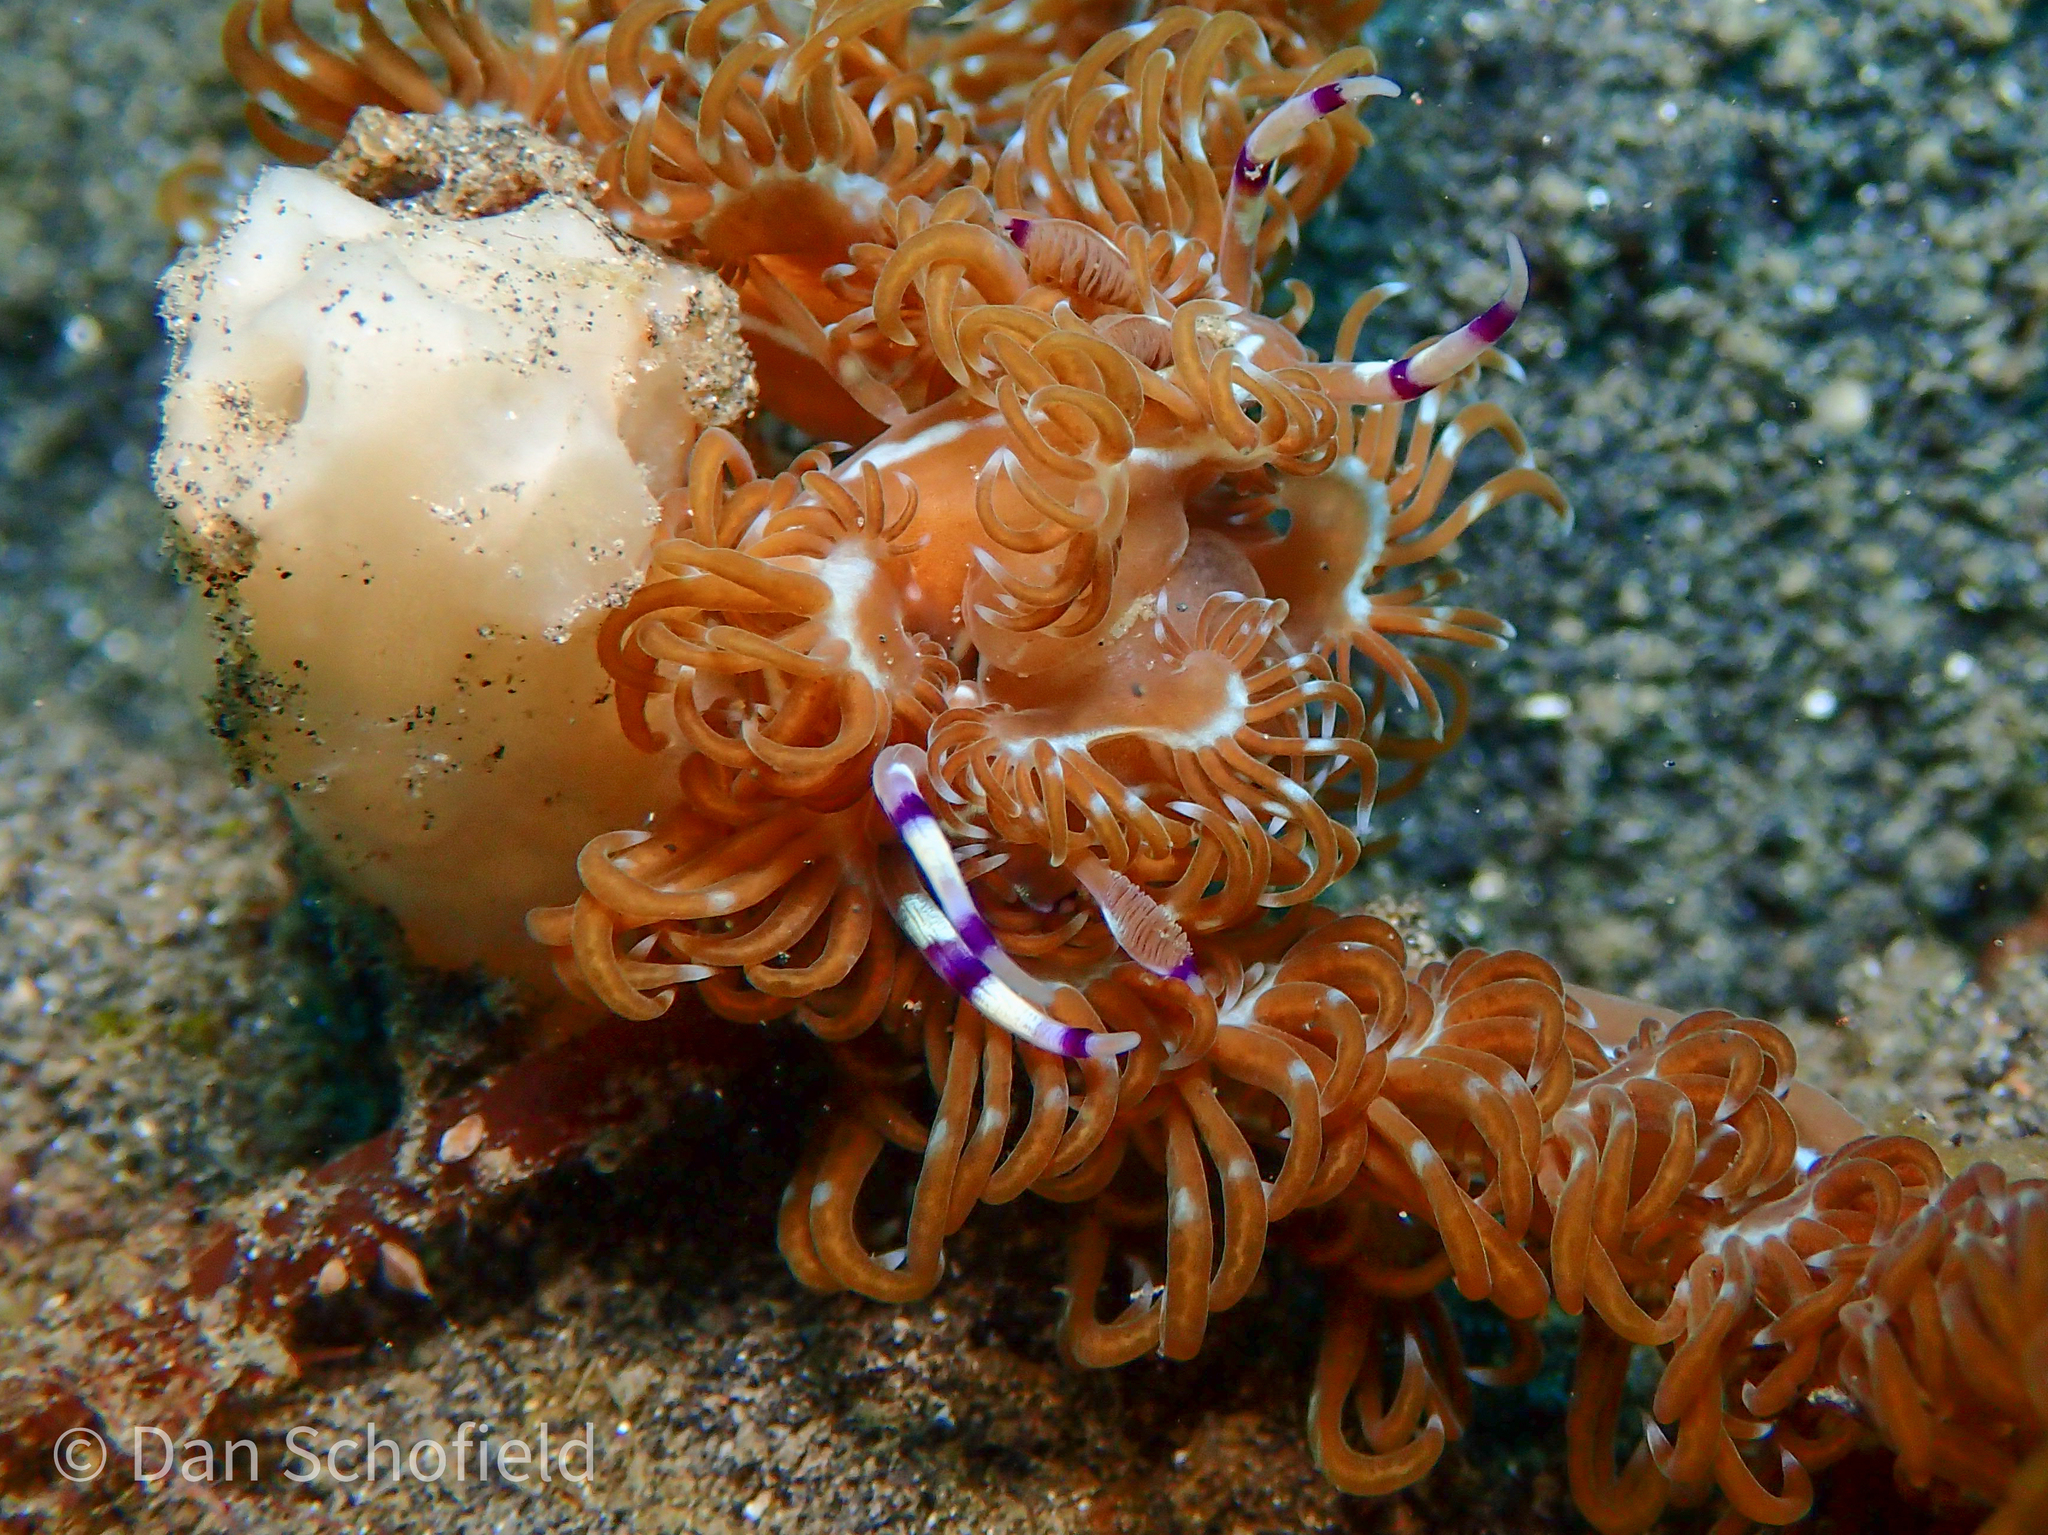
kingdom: Animalia
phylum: Mollusca
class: Gastropoda
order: Nudibranchia
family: Facelinidae
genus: Pteraeolidia
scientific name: Pteraeolidia semperi
